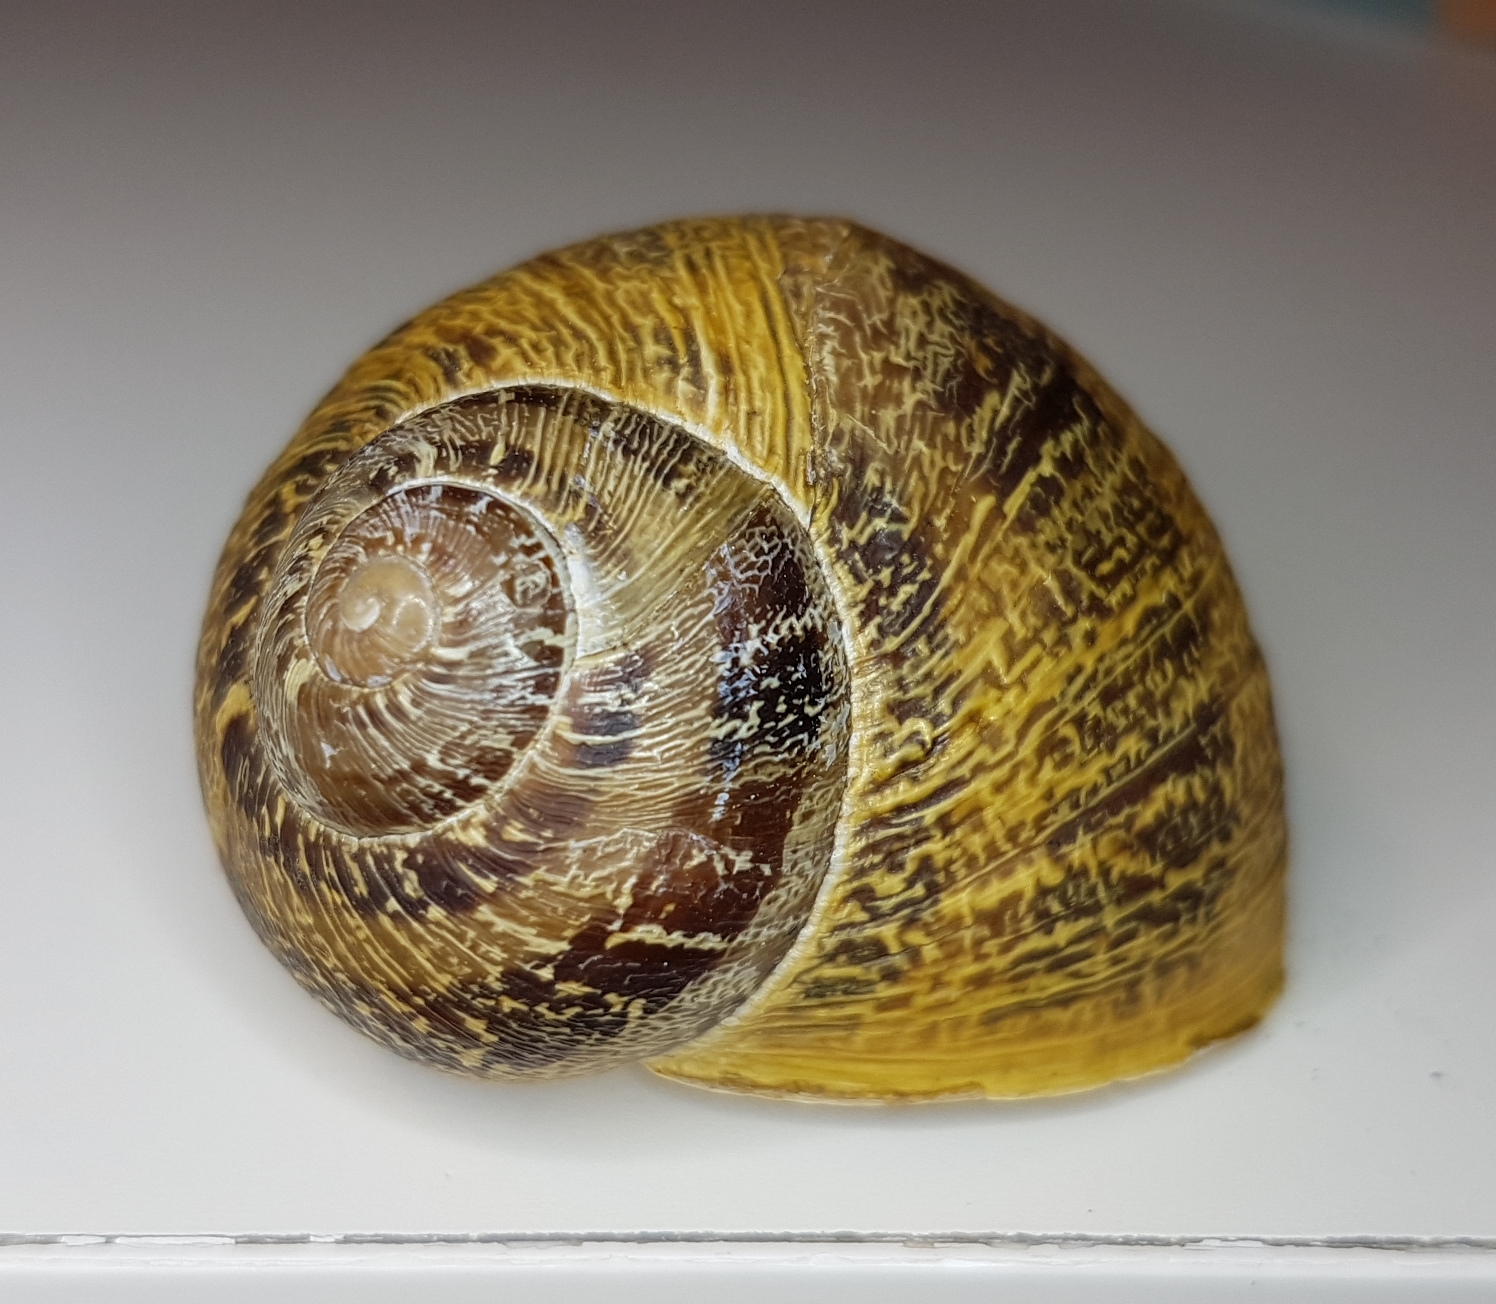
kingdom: Animalia
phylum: Mollusca
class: Gastropoda
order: Stylommatophora
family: Helicidae
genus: Cornu
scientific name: Cornu aspersum
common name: Brown garden snail
